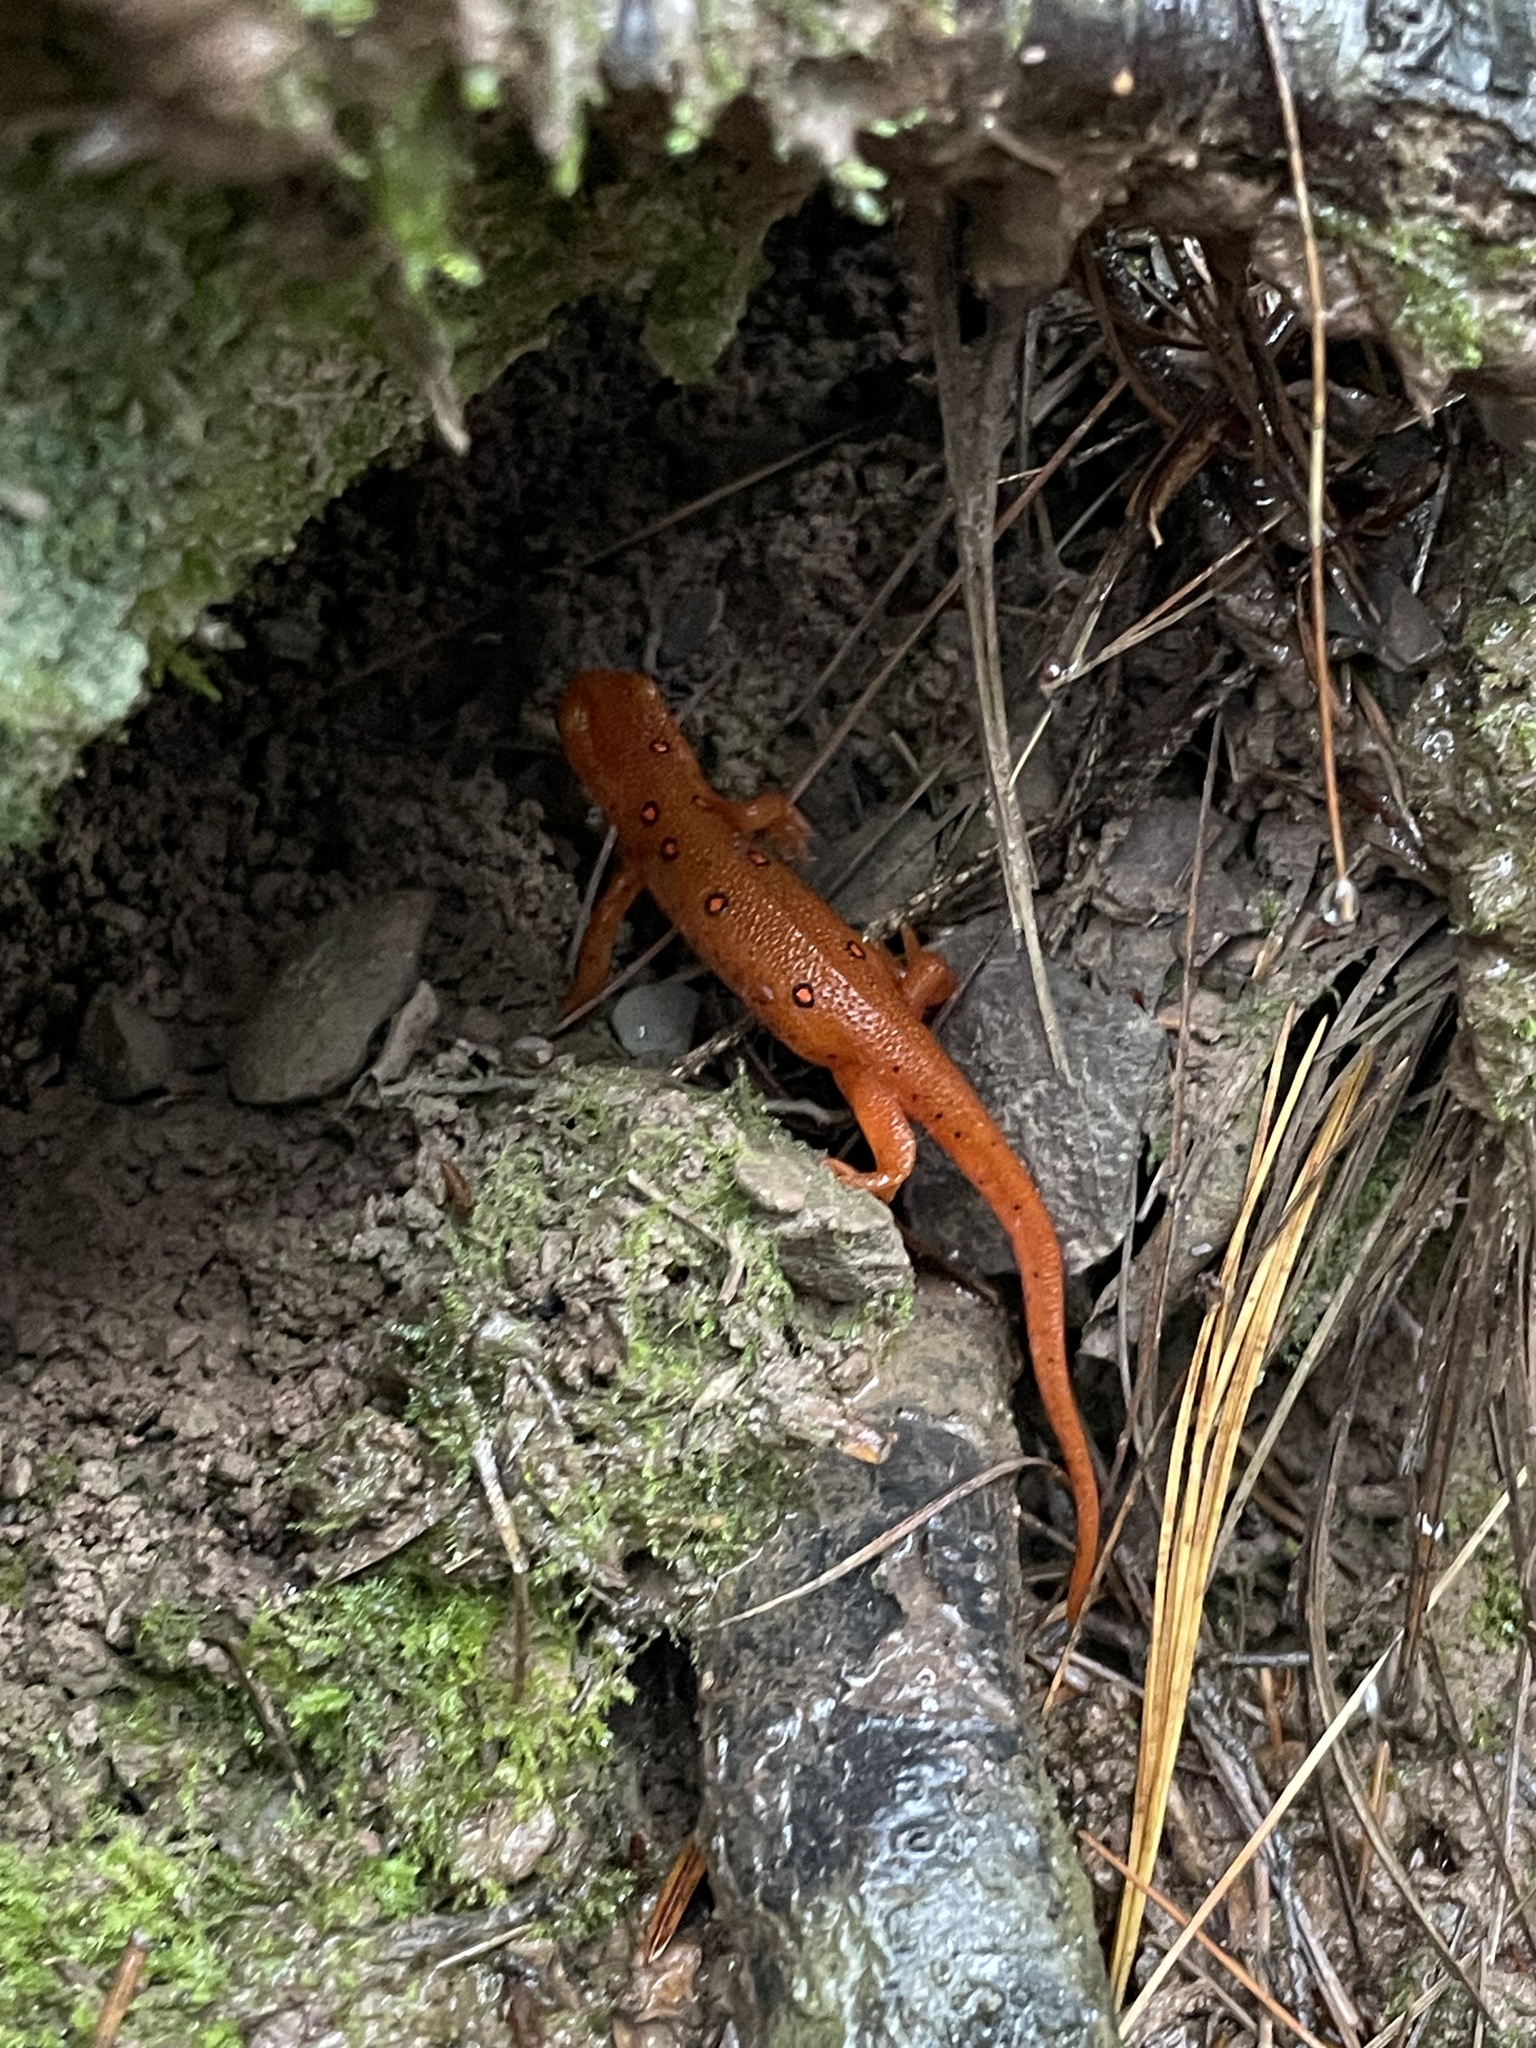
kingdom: Animalia
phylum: Chordata
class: Amphibia
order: Caudata
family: Salamandridae
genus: Notophthalmus
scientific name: Notophthalmus viridescens
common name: Eastern newt
